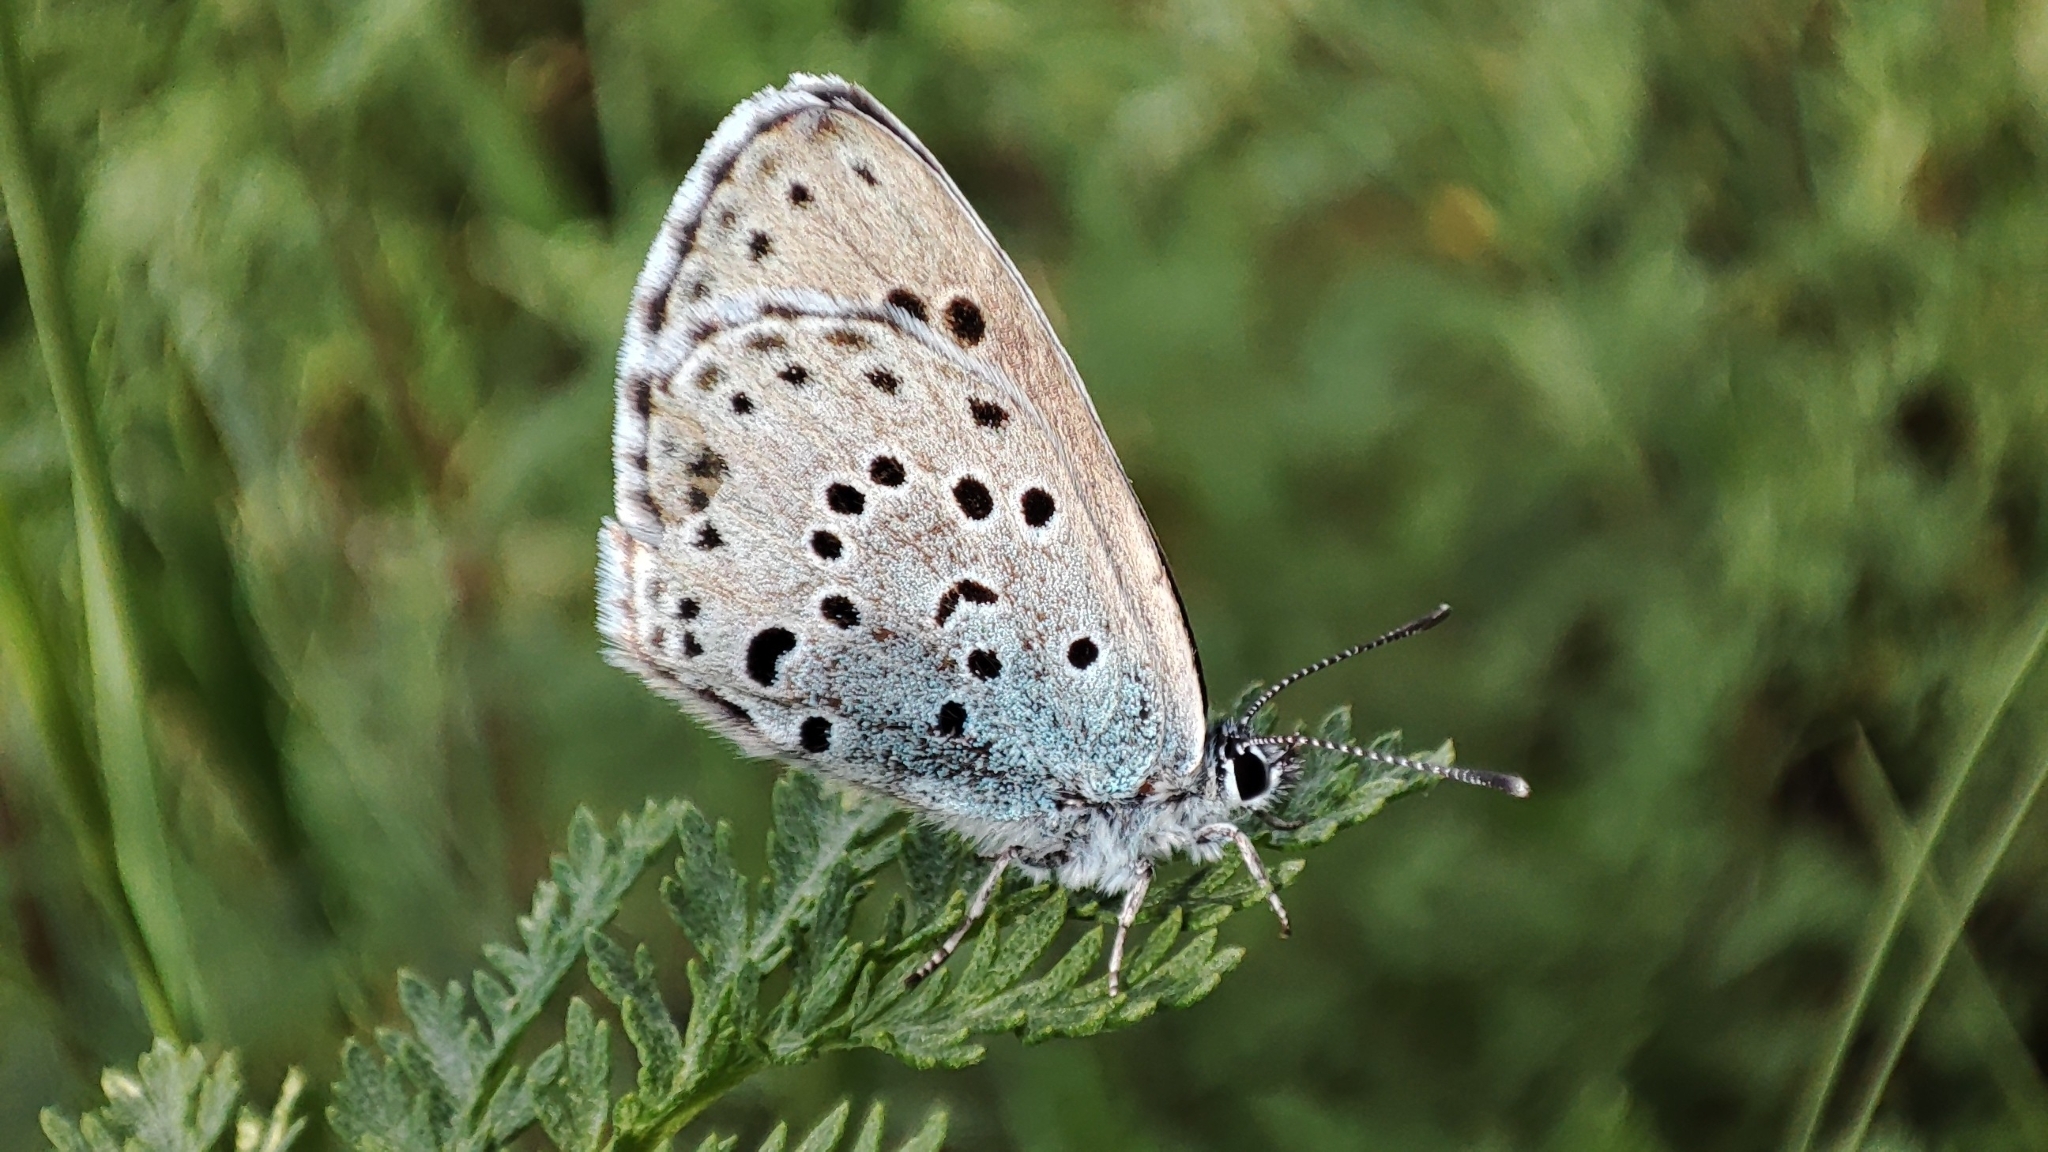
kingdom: Animalia
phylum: Arthropoda
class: Insecta
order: Lepidoptera
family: Lycaenidae
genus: Maculinea
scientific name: Maculinea arion
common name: Large blue
